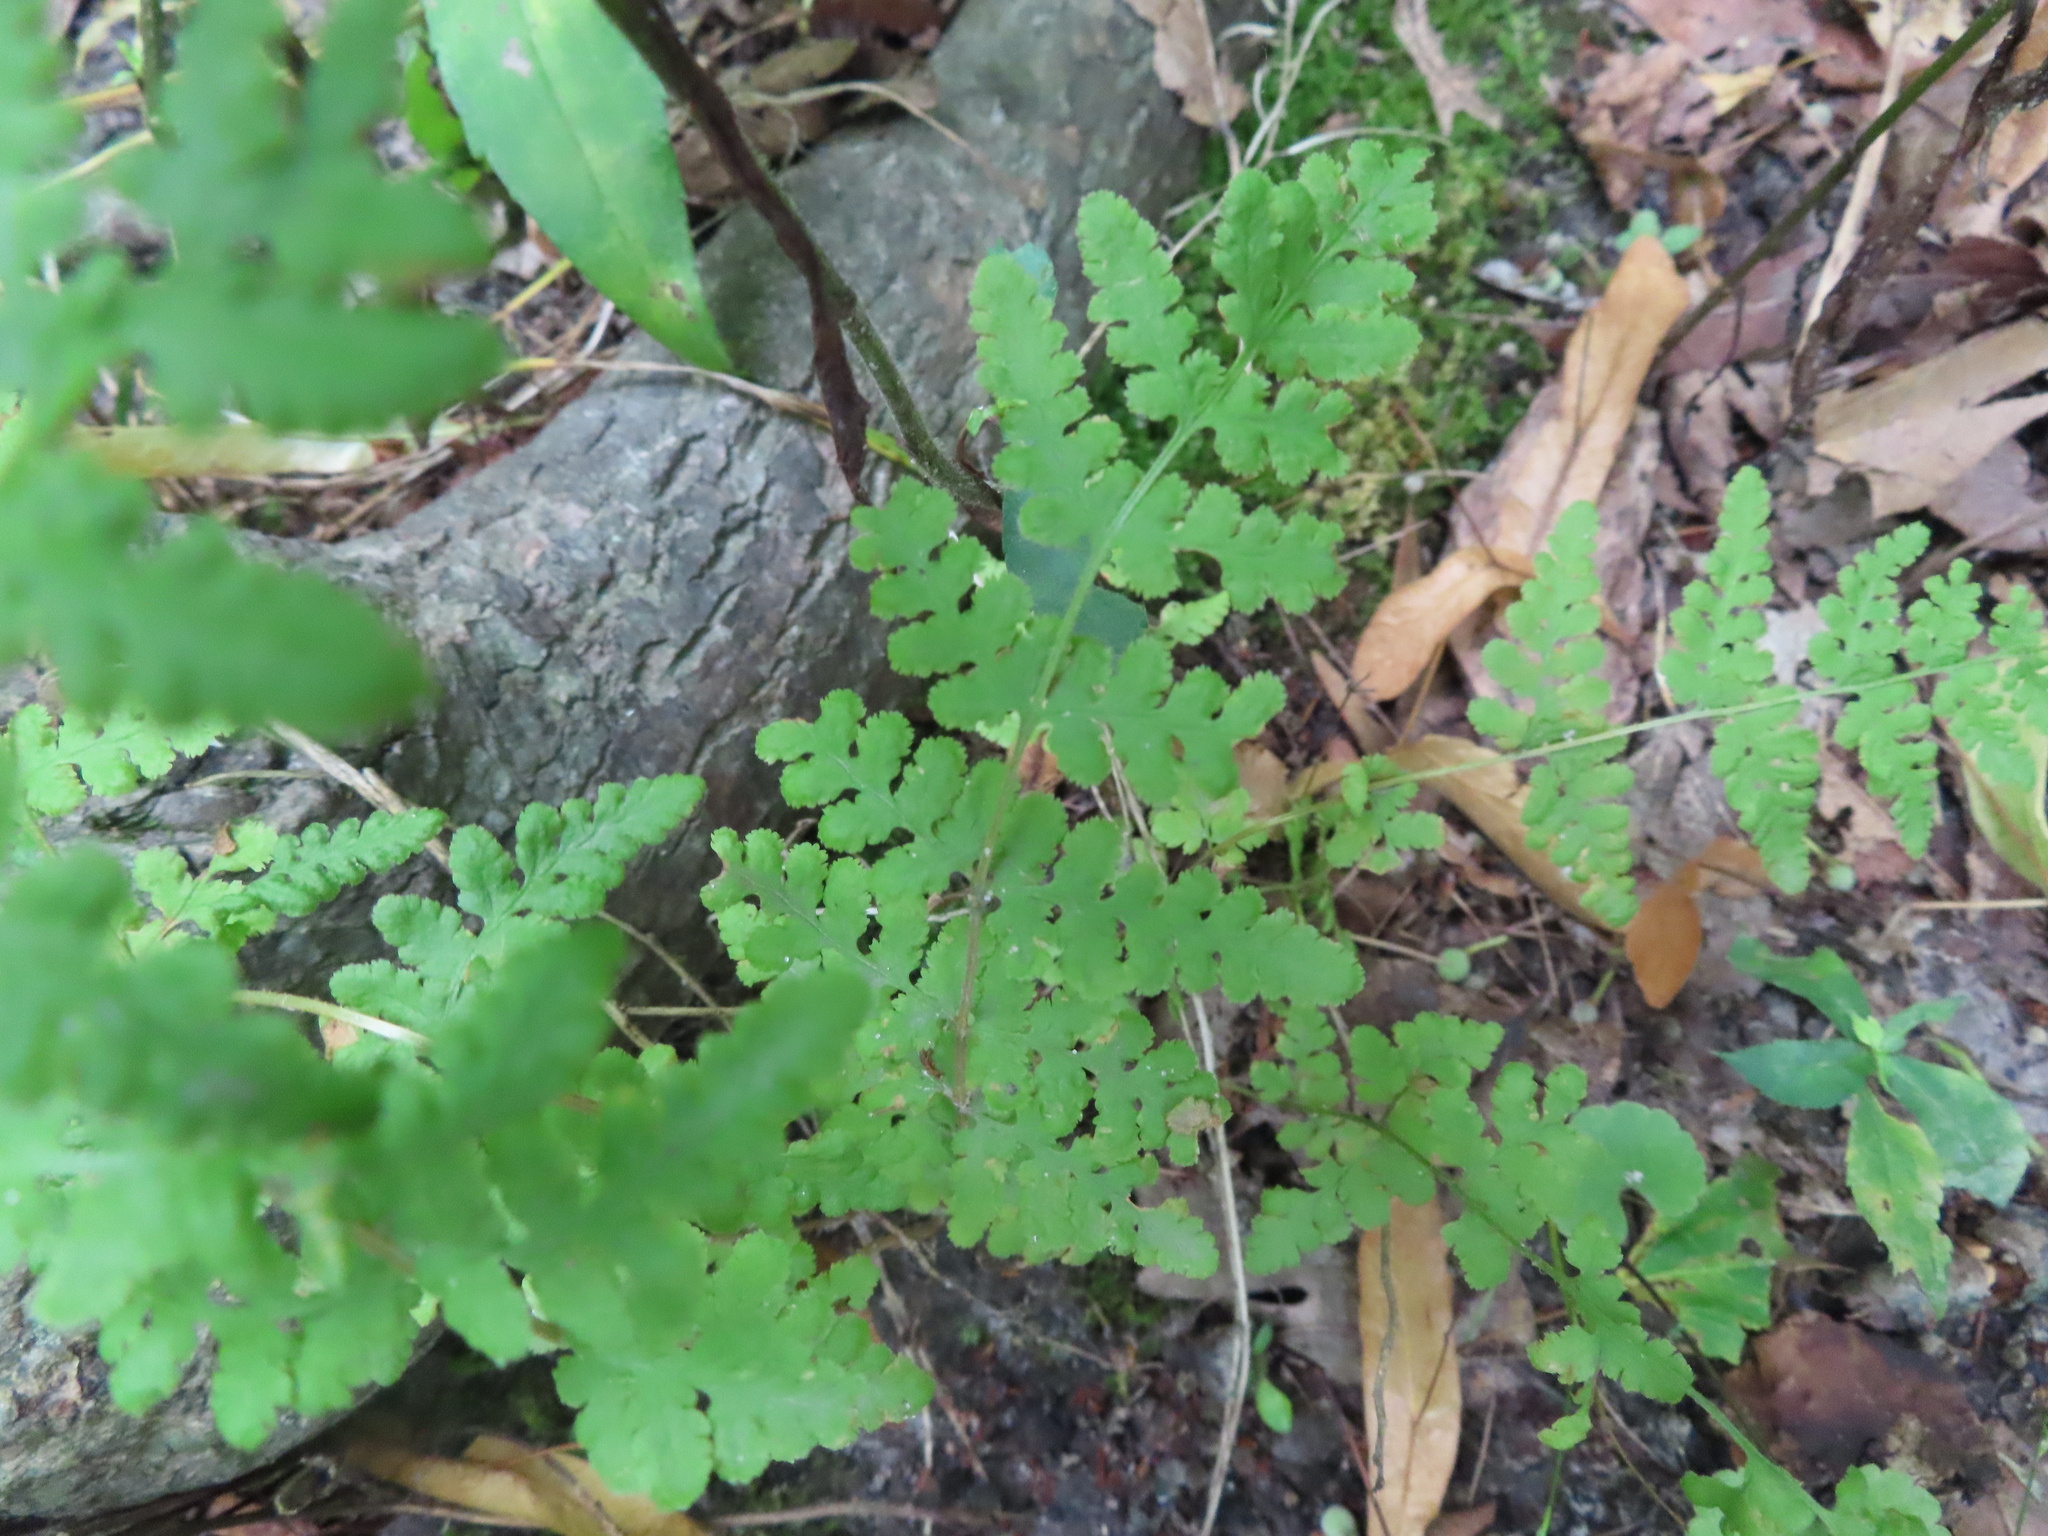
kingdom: Plantae
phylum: Tracheophyta
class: Polypodiopsida
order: Polypodiales
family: Woodsiaceae
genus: Physematium
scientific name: Physematium obtusum
